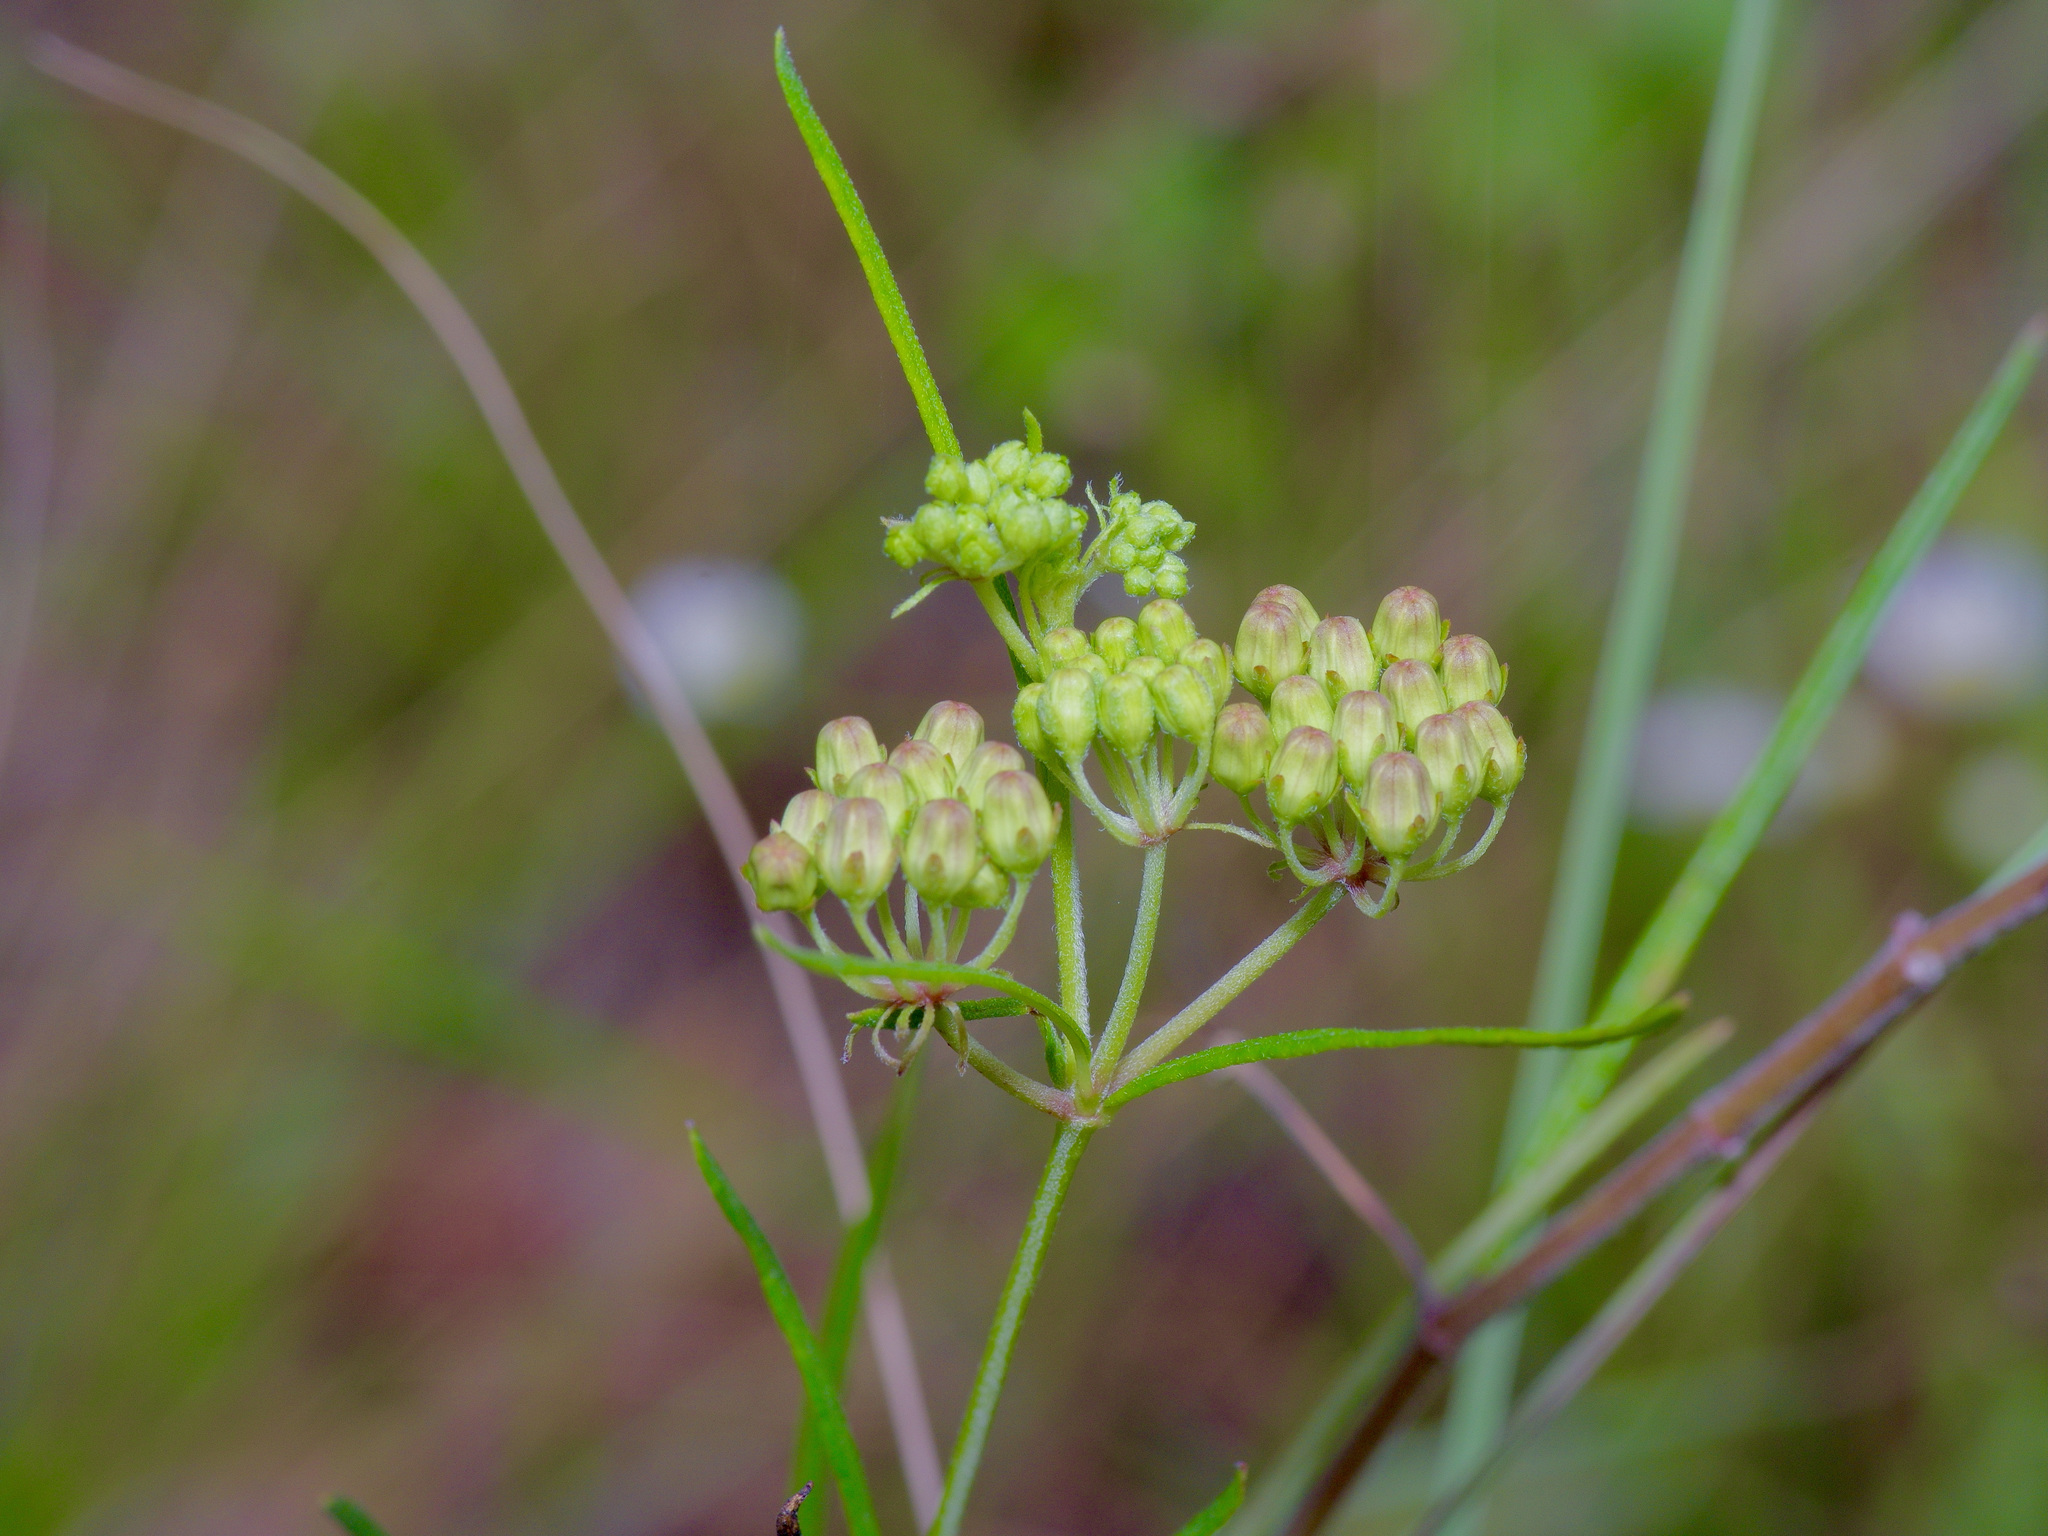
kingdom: Plantae
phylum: Tracheophyta
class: Magnoliopsida
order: Gentianales
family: Apocynaceae
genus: Asclepias
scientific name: Asclepias verticillata
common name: Eastern whorled milkweed
